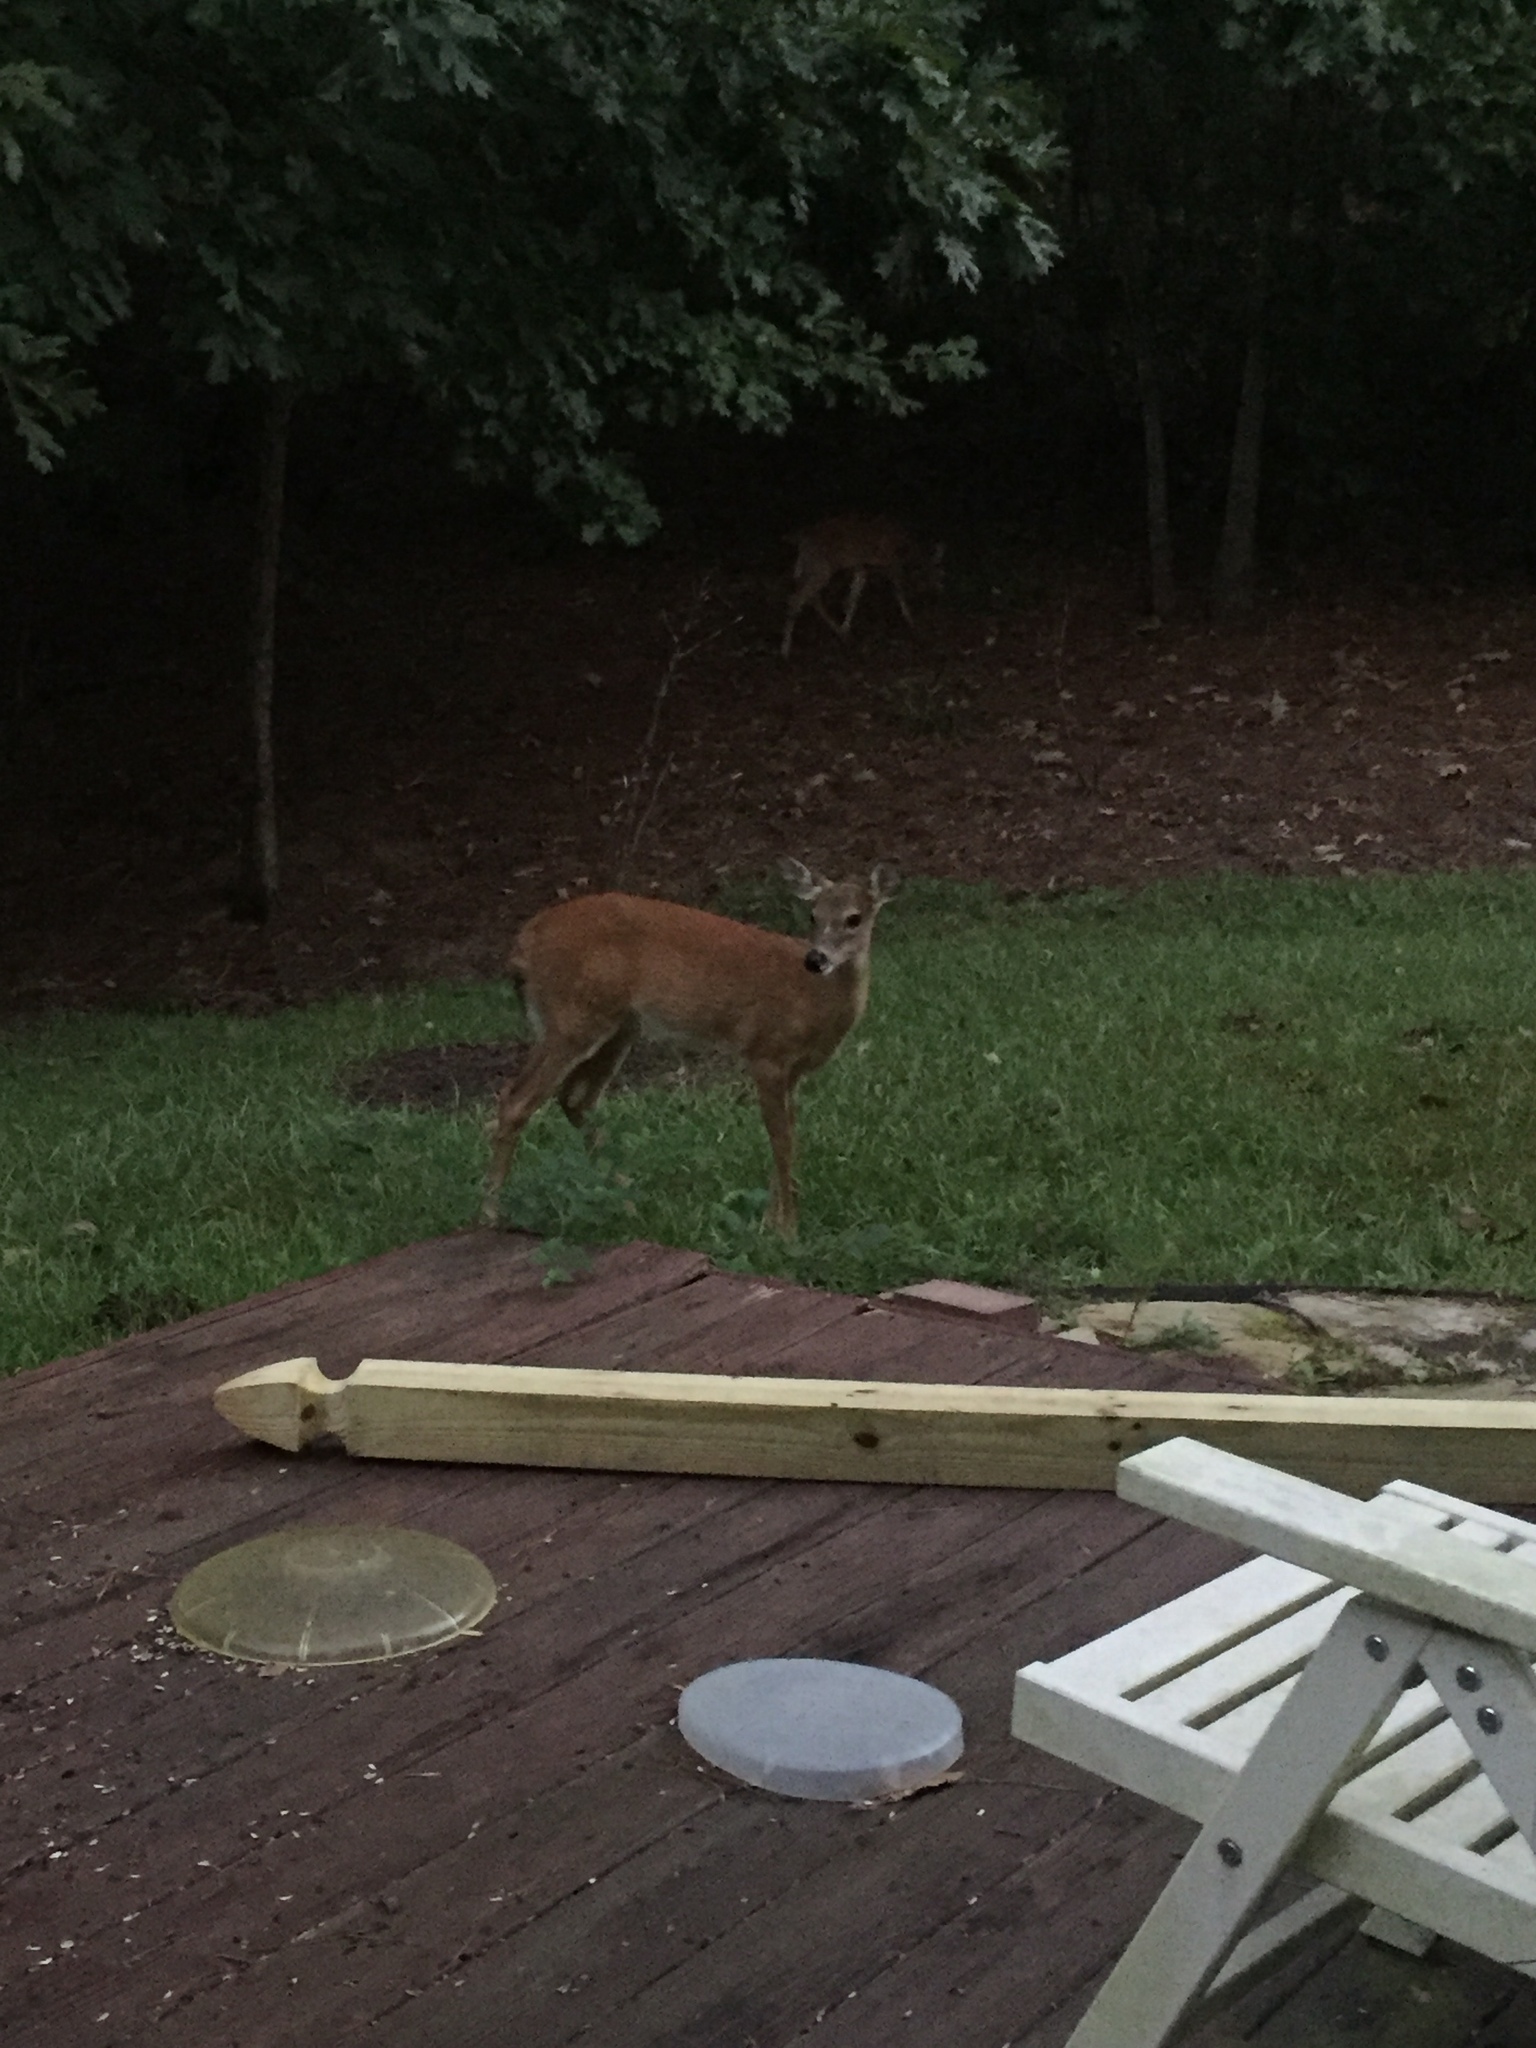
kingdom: Animalia
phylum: Chordata
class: Mammalia
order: Artiodactyla
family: Cervidae
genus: Odocoileus
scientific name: Odocoileus virginianus
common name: White-tailed deer
